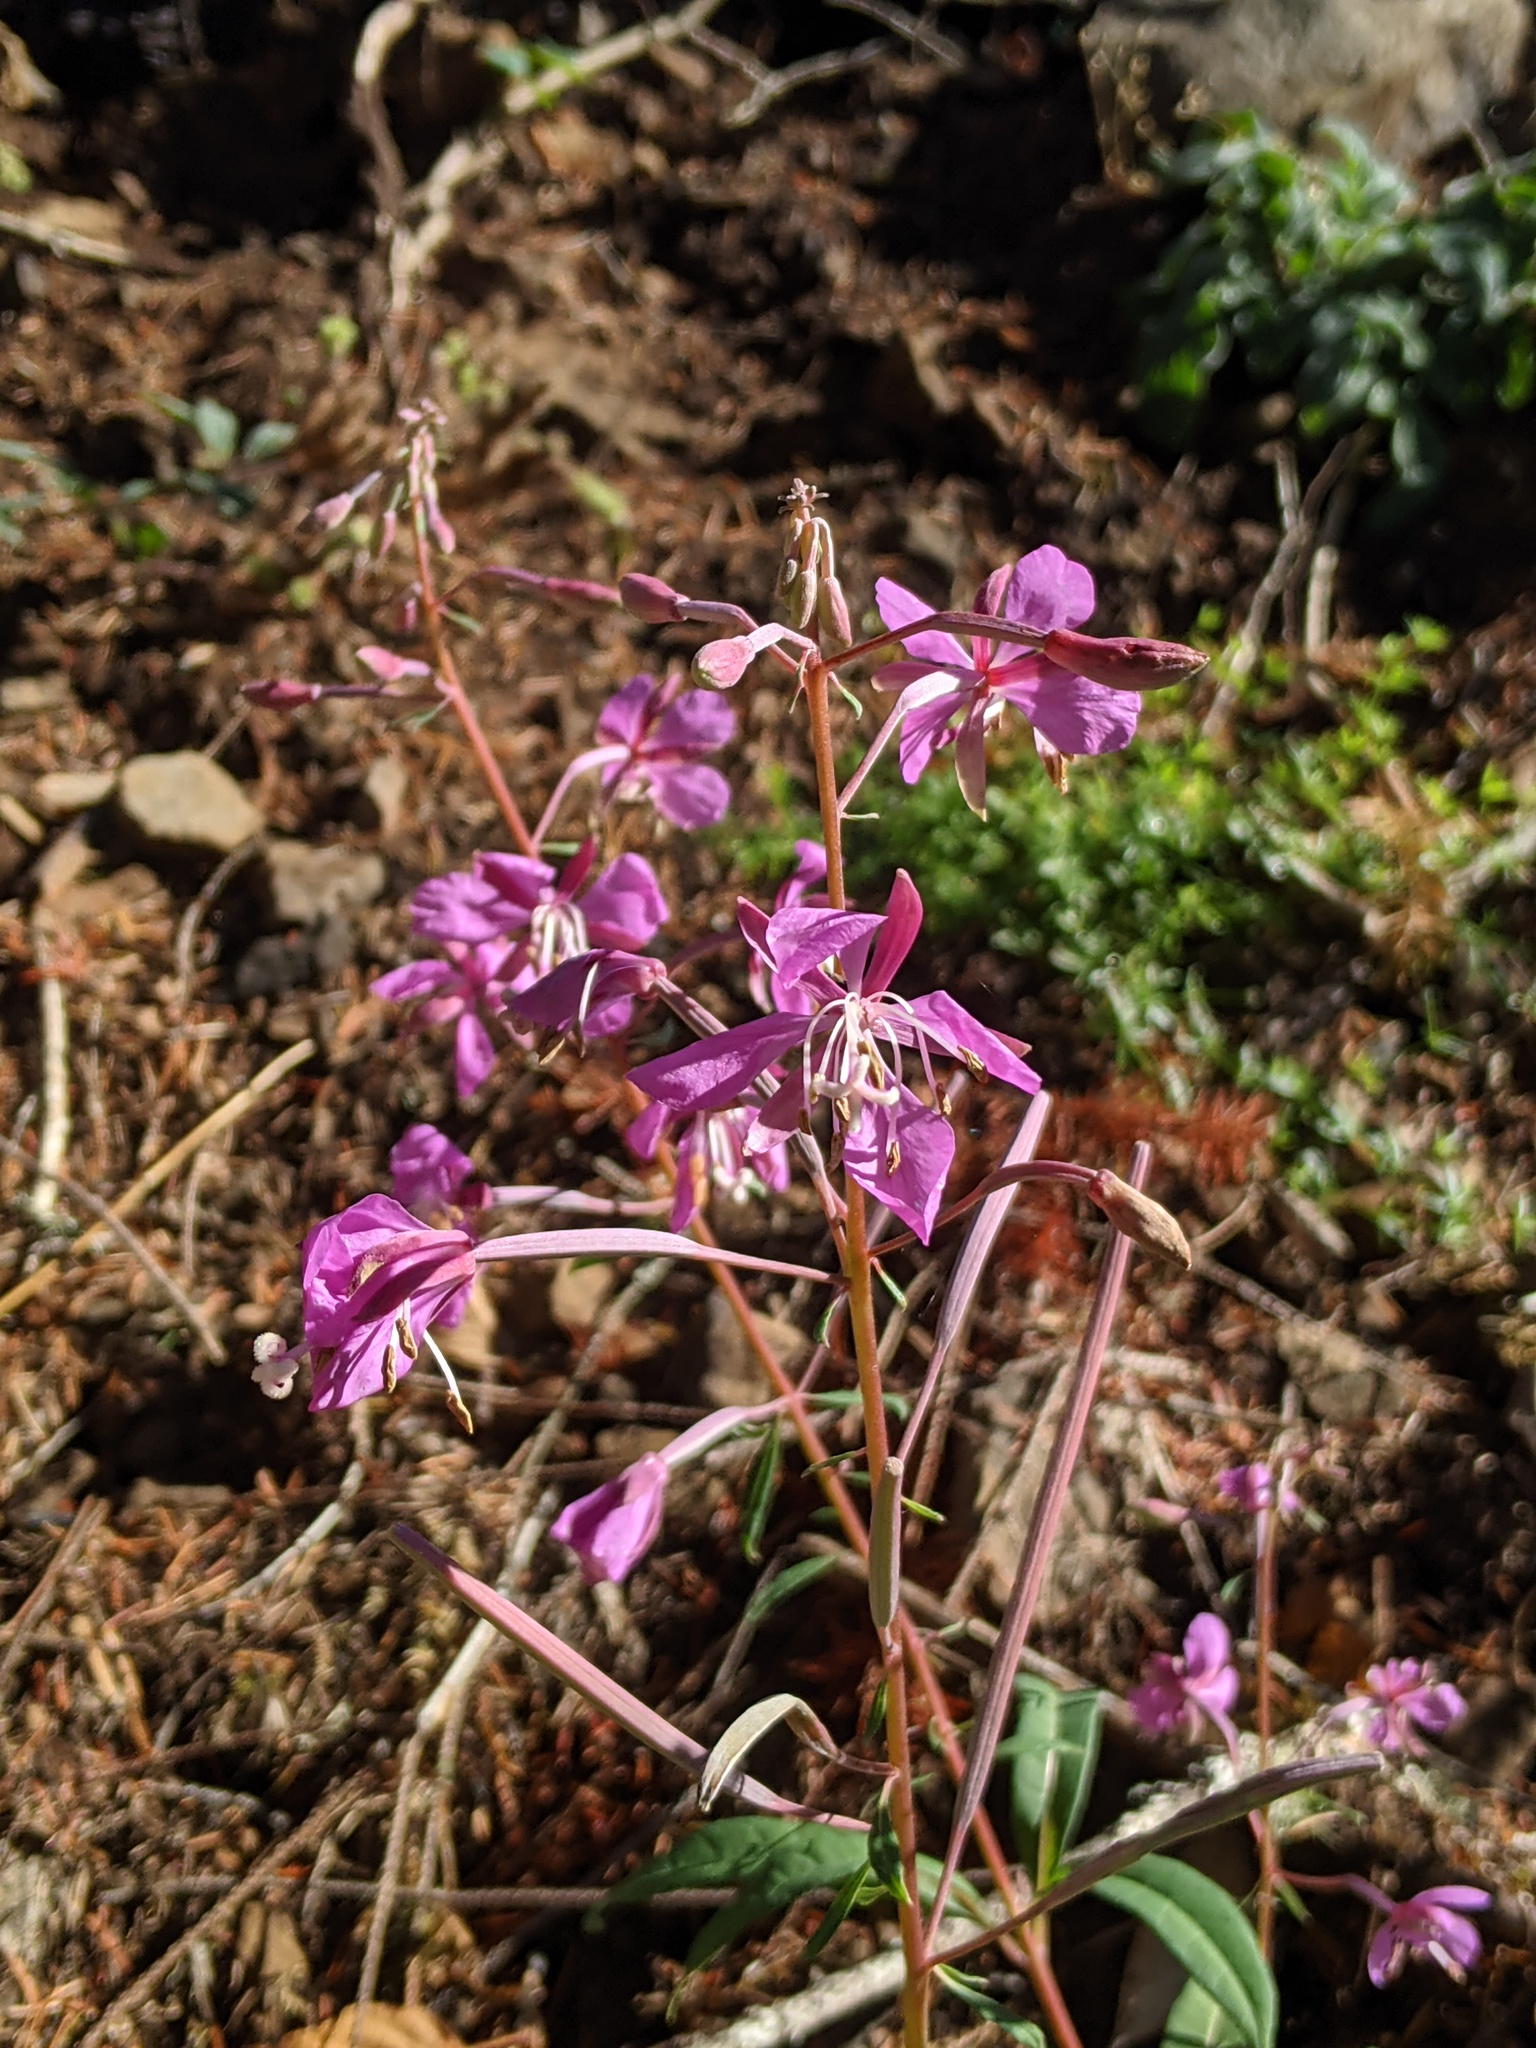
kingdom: Plantae
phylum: Tracheophyta
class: Magnoliopsida
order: Myrtales
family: Onagraceae
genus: Chamaenerion
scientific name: Chamaenerion angustifolium
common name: Fireweed
